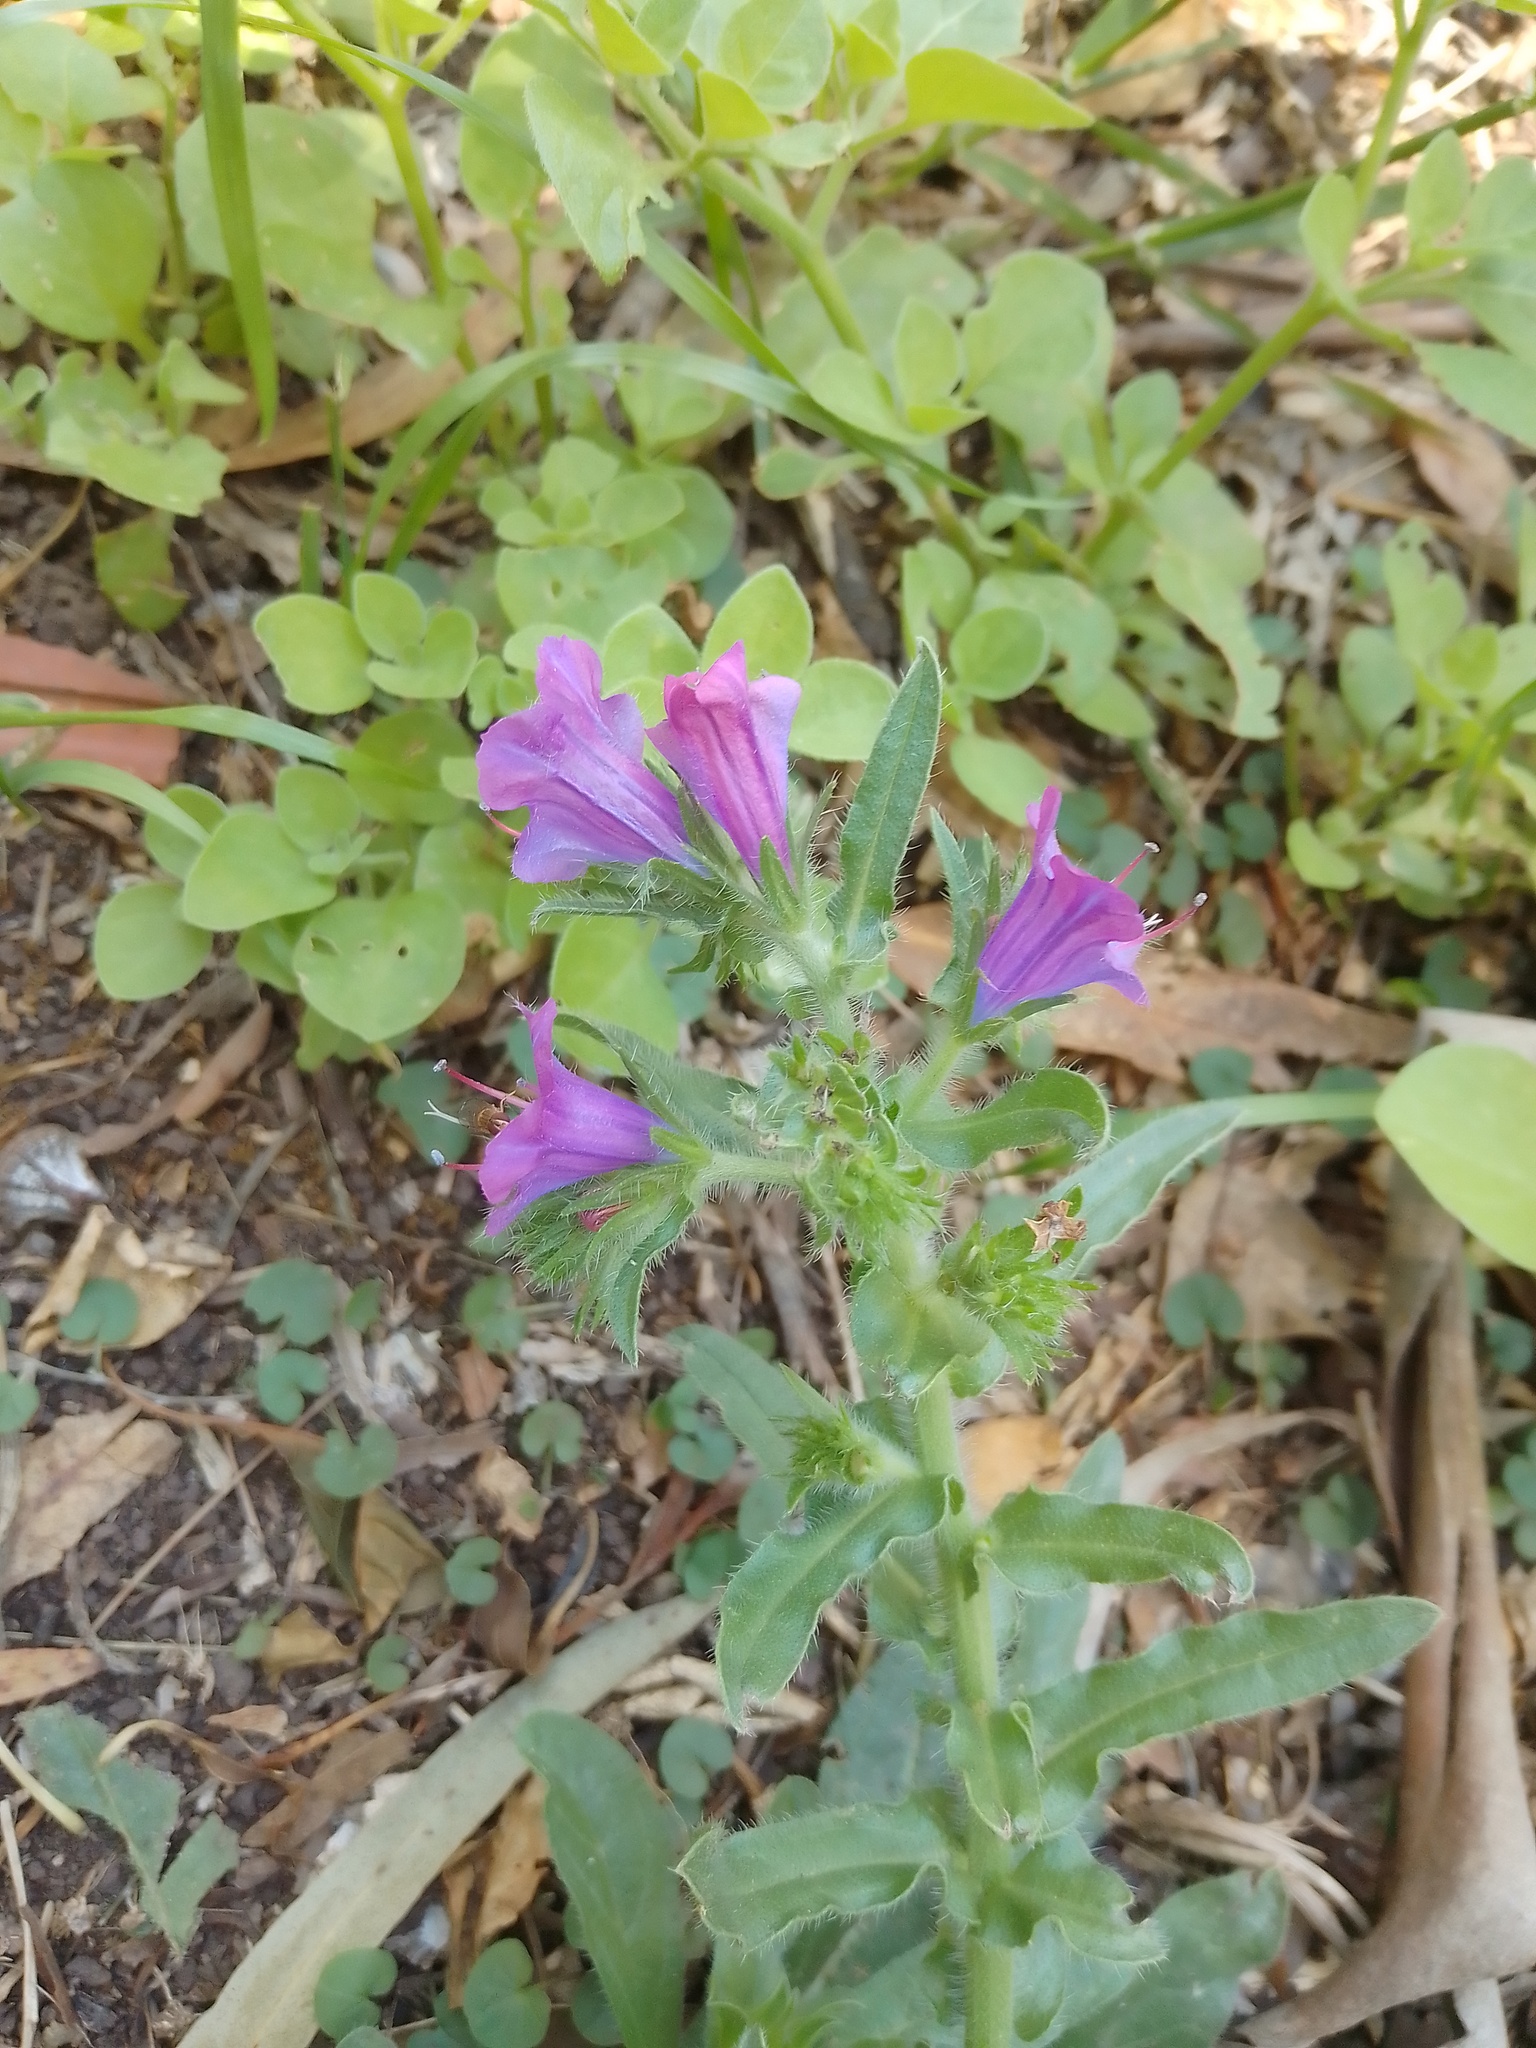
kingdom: Plantae
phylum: Tracheophyta
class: Magnoliopsida
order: Boraginales
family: Boraginaceae
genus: Echium
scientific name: Echium plantagineum
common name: Purple viper's-bugloss
